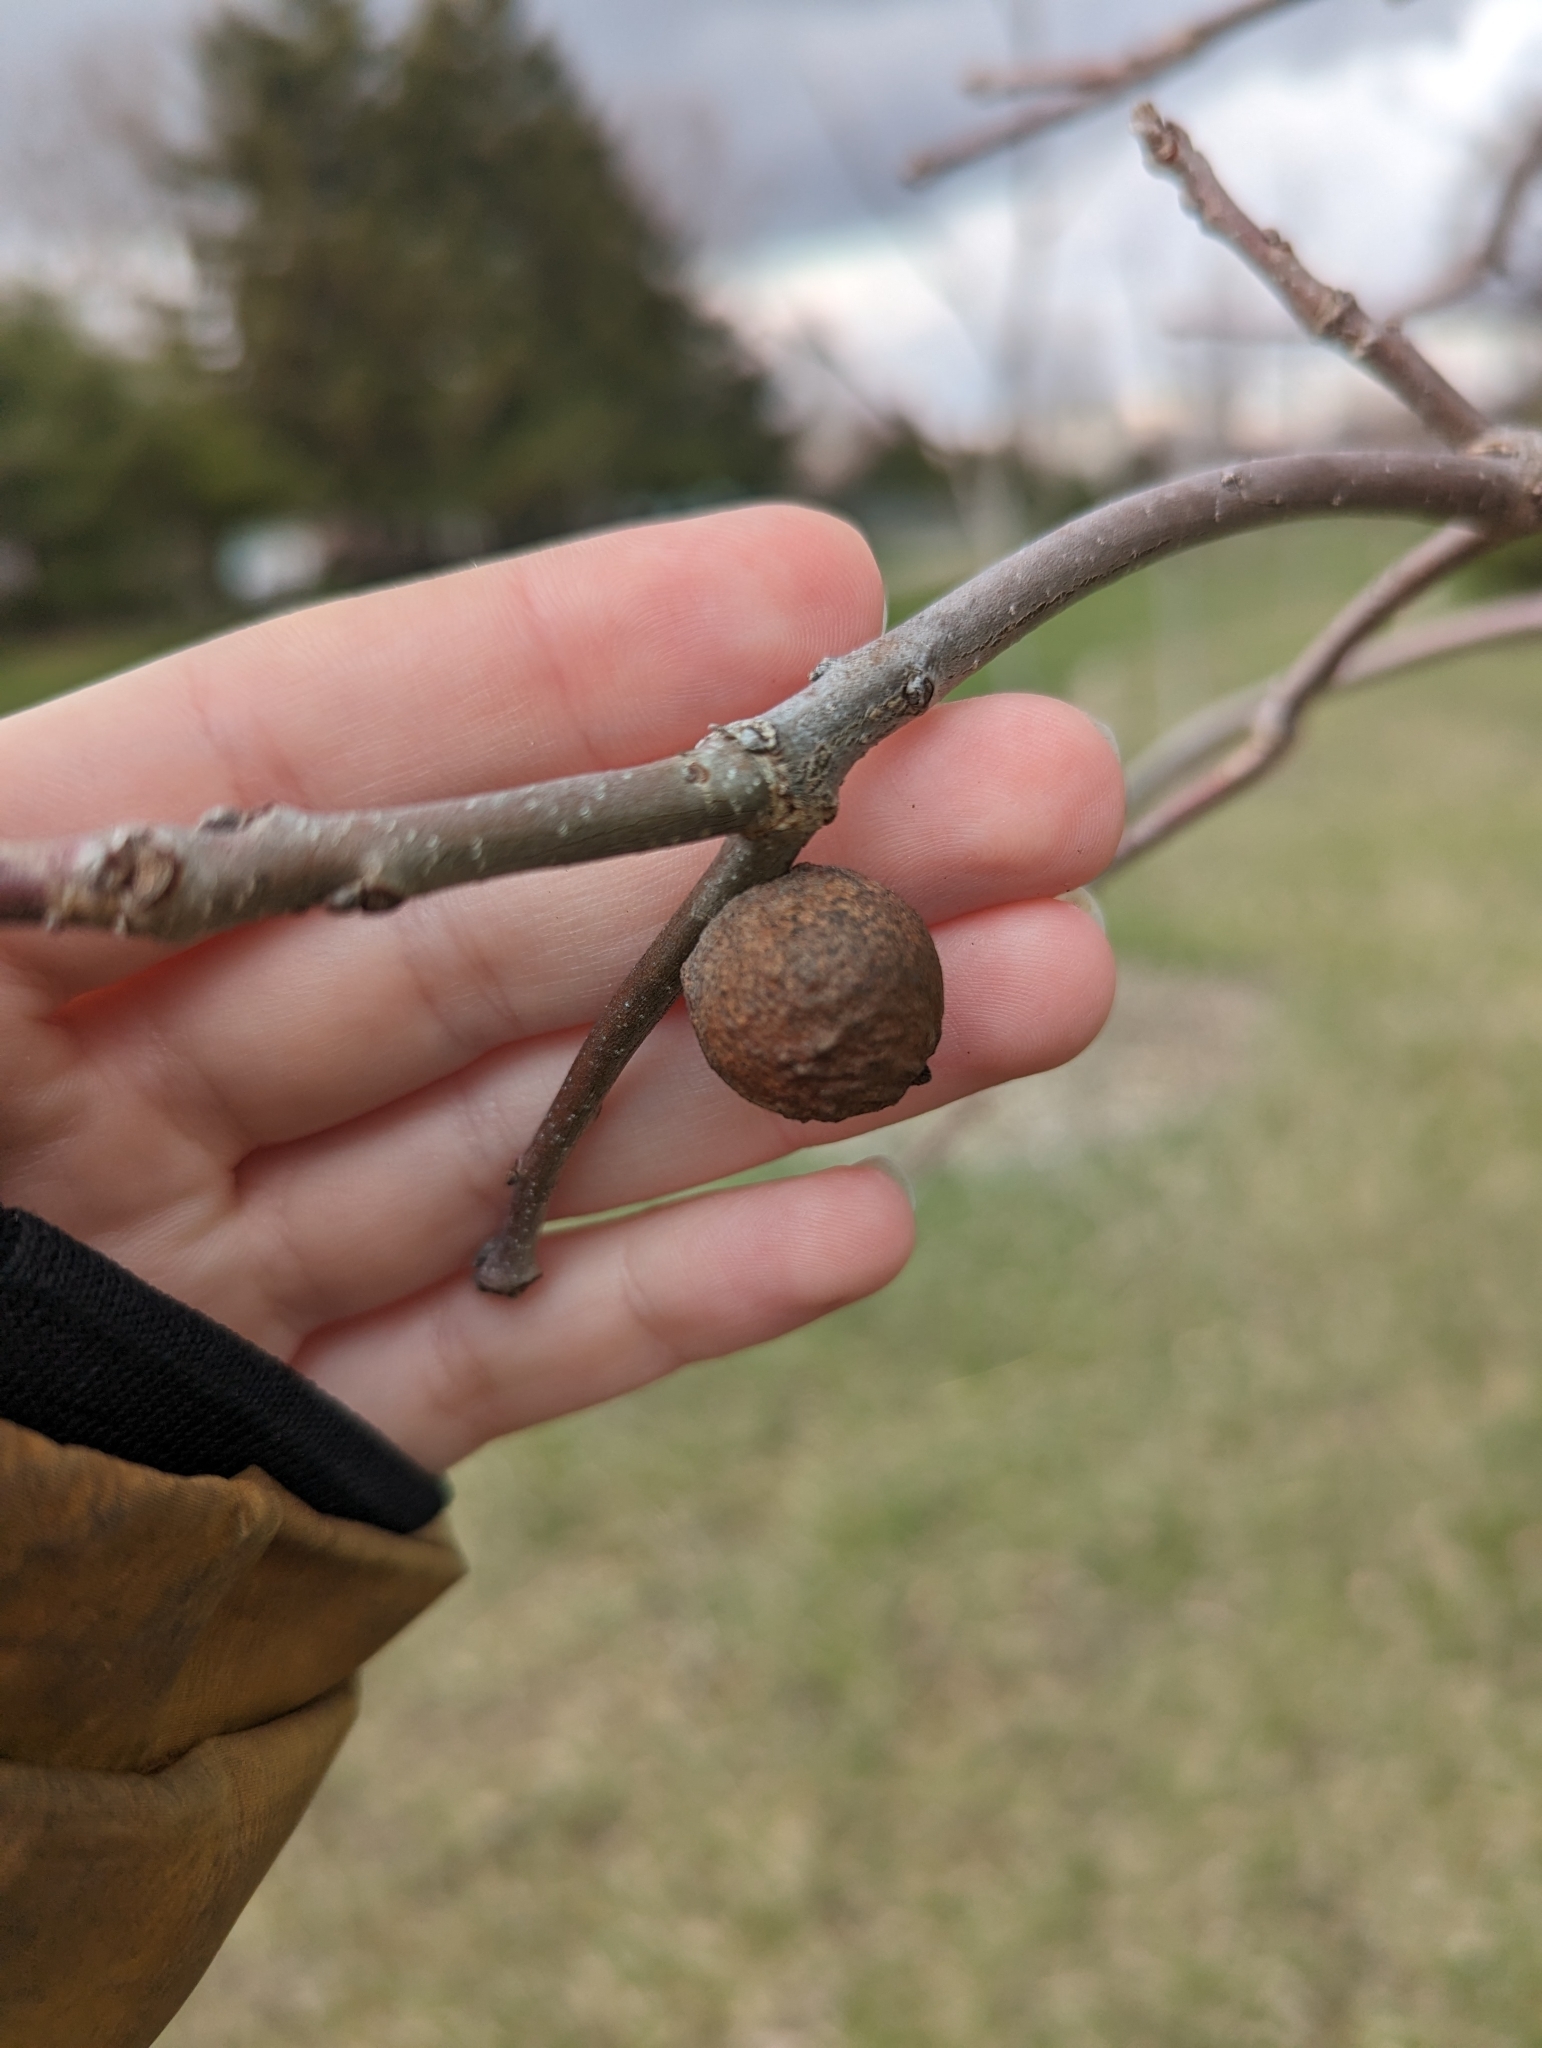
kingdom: Animalia
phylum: Arthropoda
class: Insecta
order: Hymenoptera
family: Cynipidae
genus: Disholcaspis
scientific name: Disholcaspis
